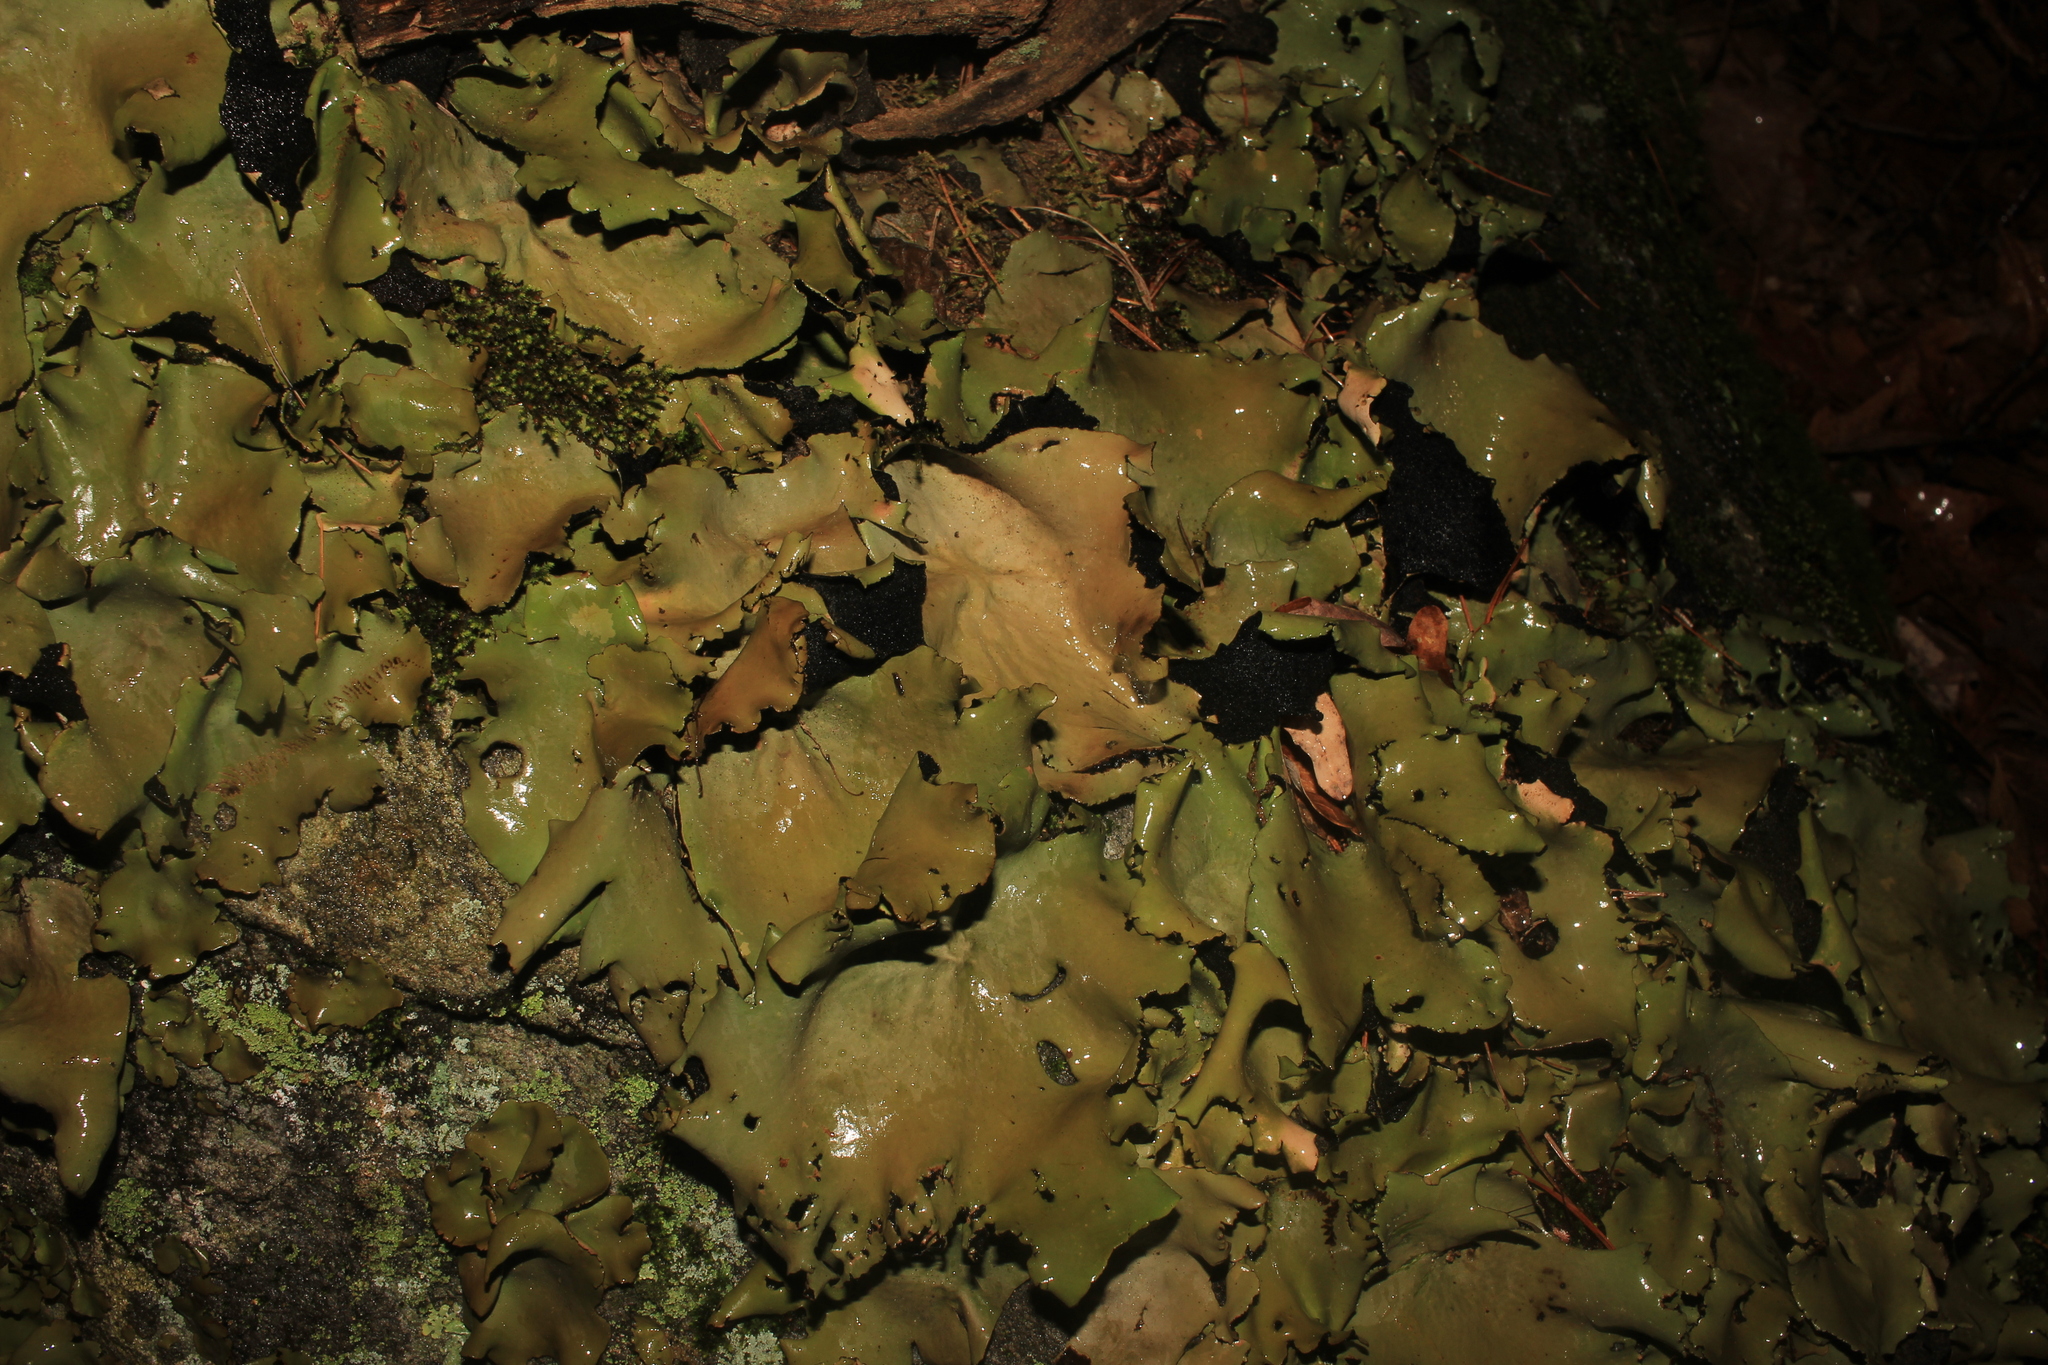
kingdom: Fungi
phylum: Ascomycota
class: Lecanoromycetes
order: Umbilicariales
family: Umbilicariaceae
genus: Umbilicaria
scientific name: Umbilicaria mammulata
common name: Smooth rock tripe
